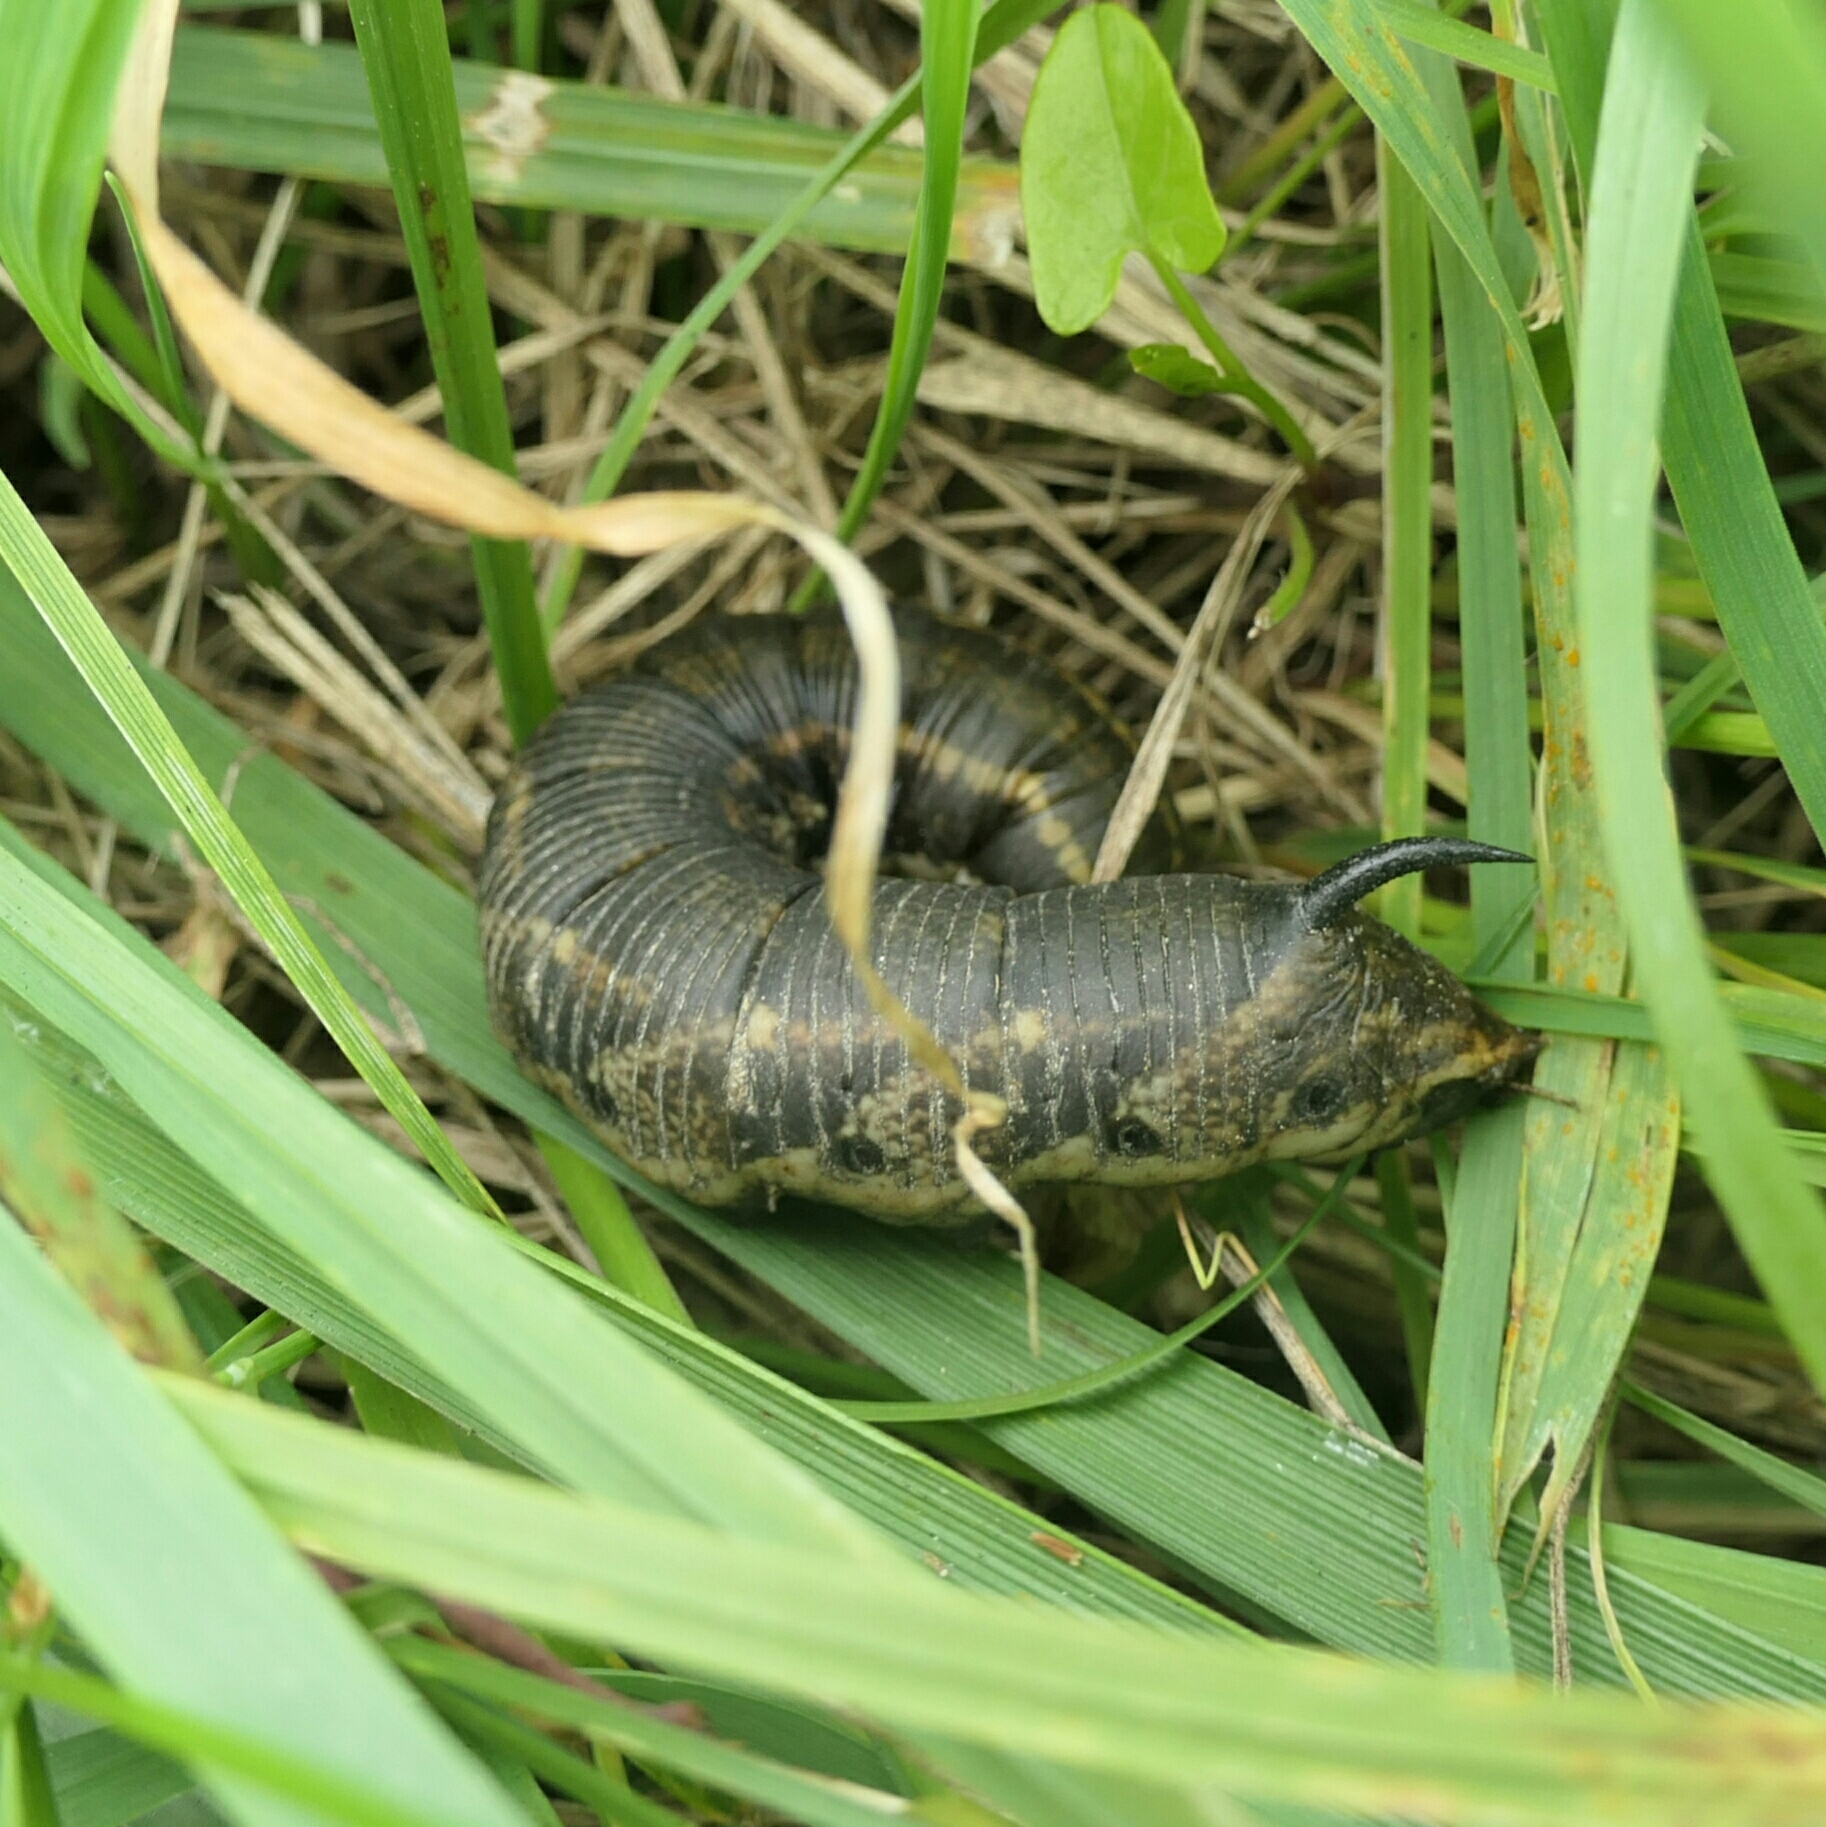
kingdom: Animalia
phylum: Arthropoda
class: Insecta
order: Lepidoptera
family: Sphingidae
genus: Agrius
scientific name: Agrius convolvuli
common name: Convolvulus hawkmoth
